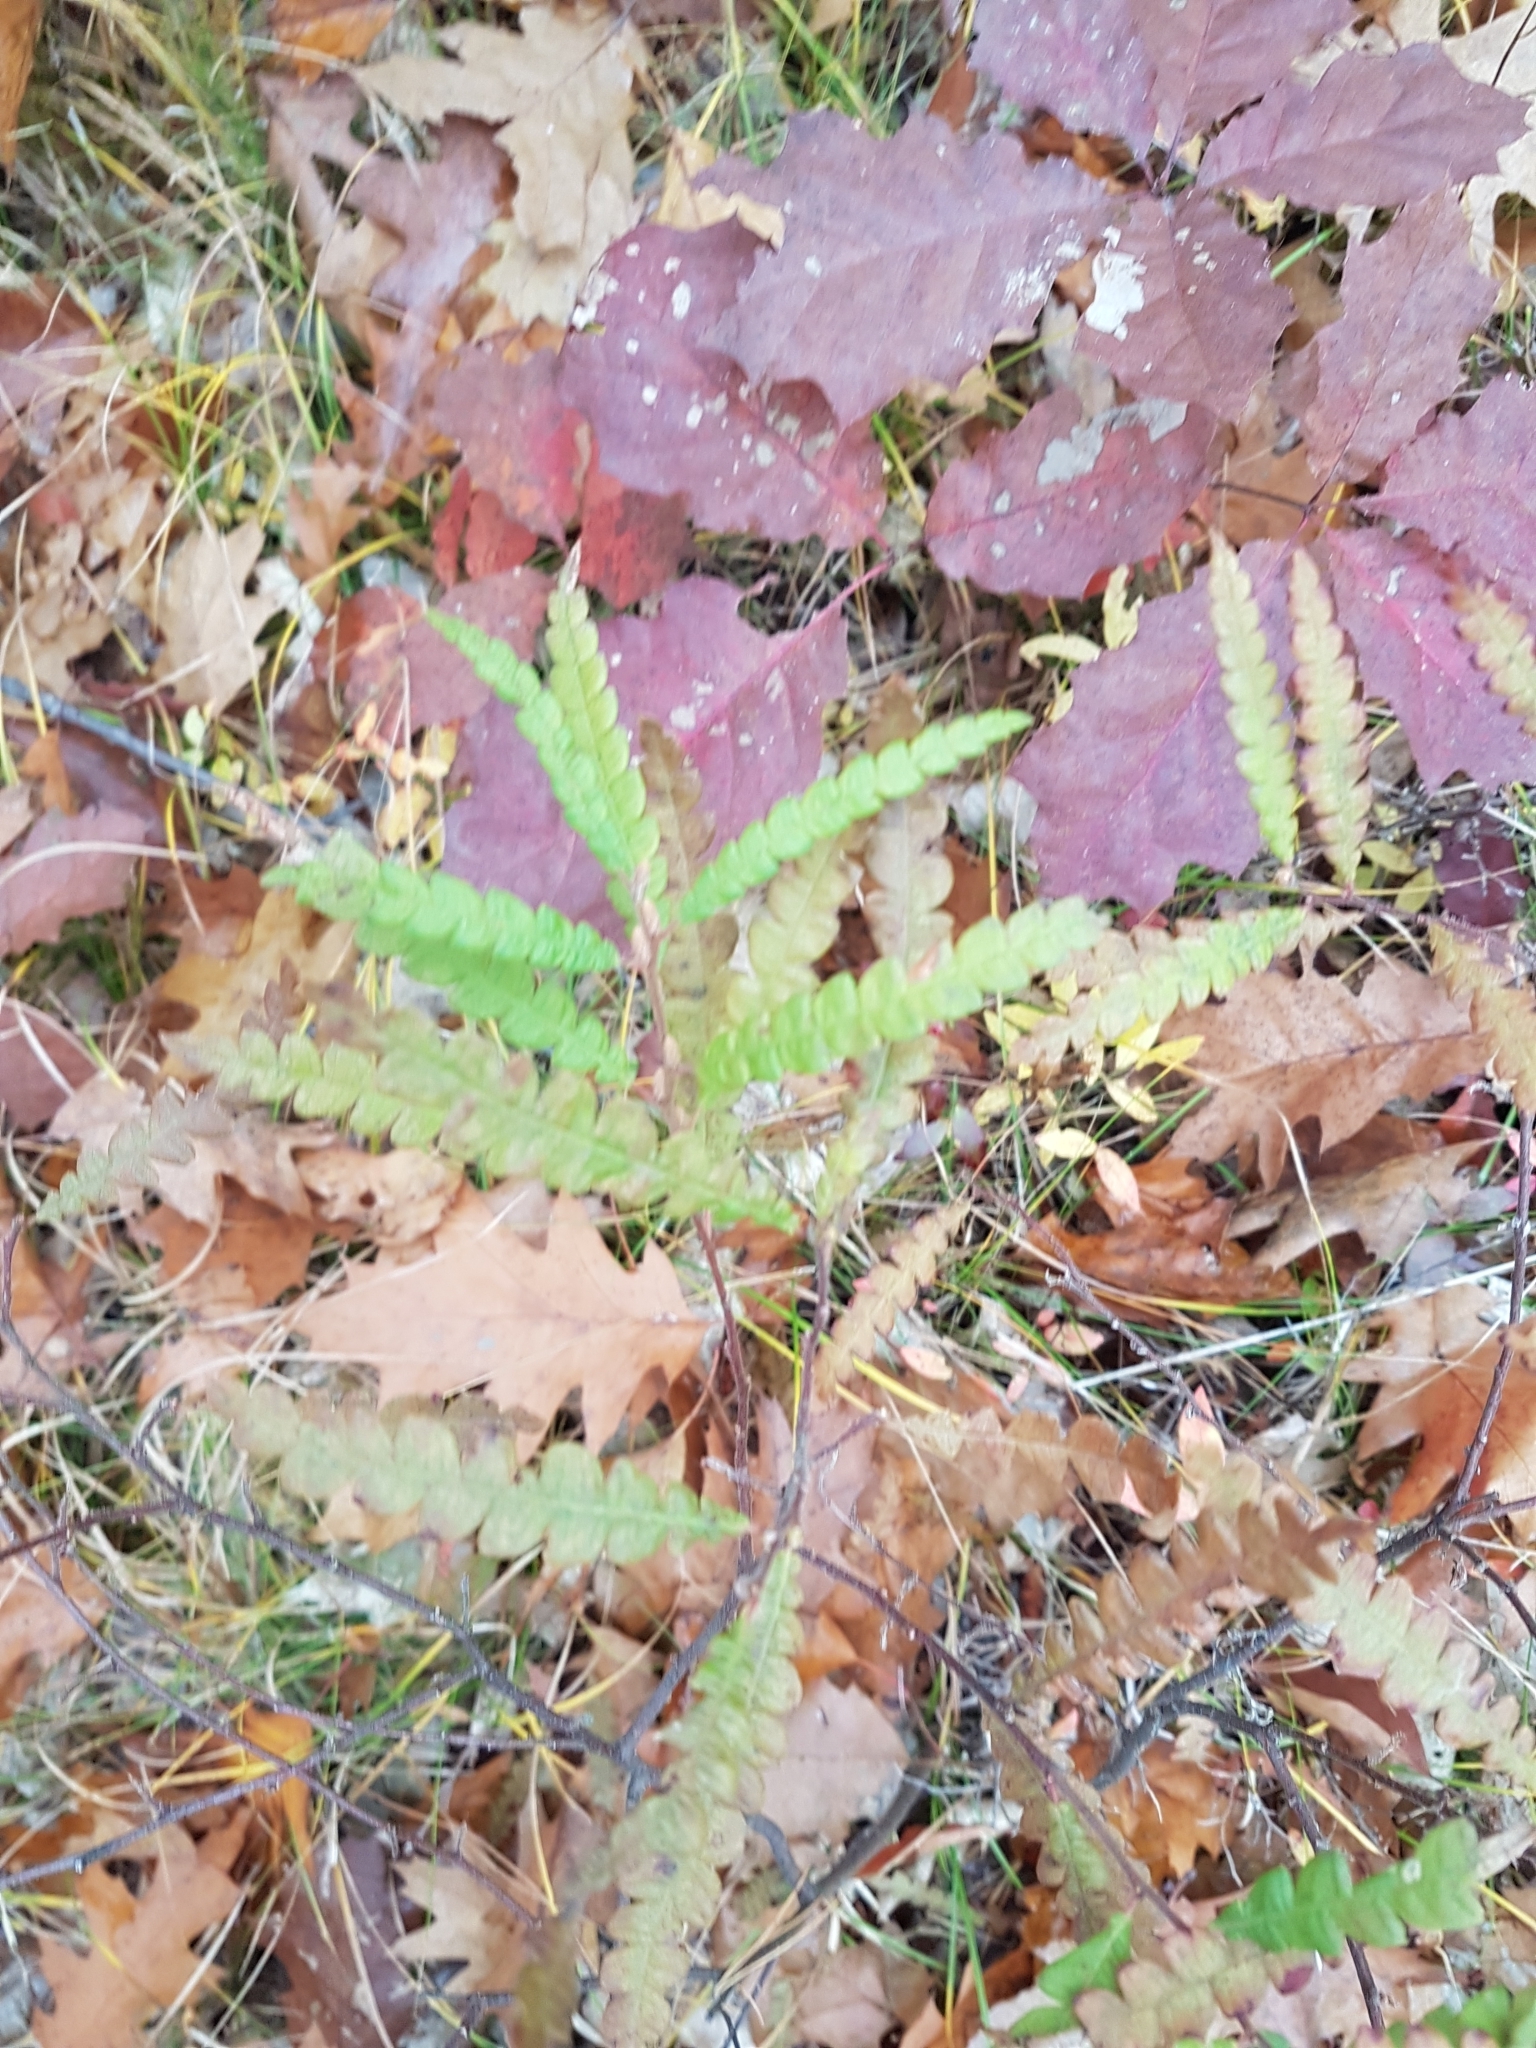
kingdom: Plantae
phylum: Tracheophyta
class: Magnoliopsida
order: Fagales
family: Myricaceae
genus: Comptonia
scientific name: Comptonia peregrina
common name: Sweet-fern
